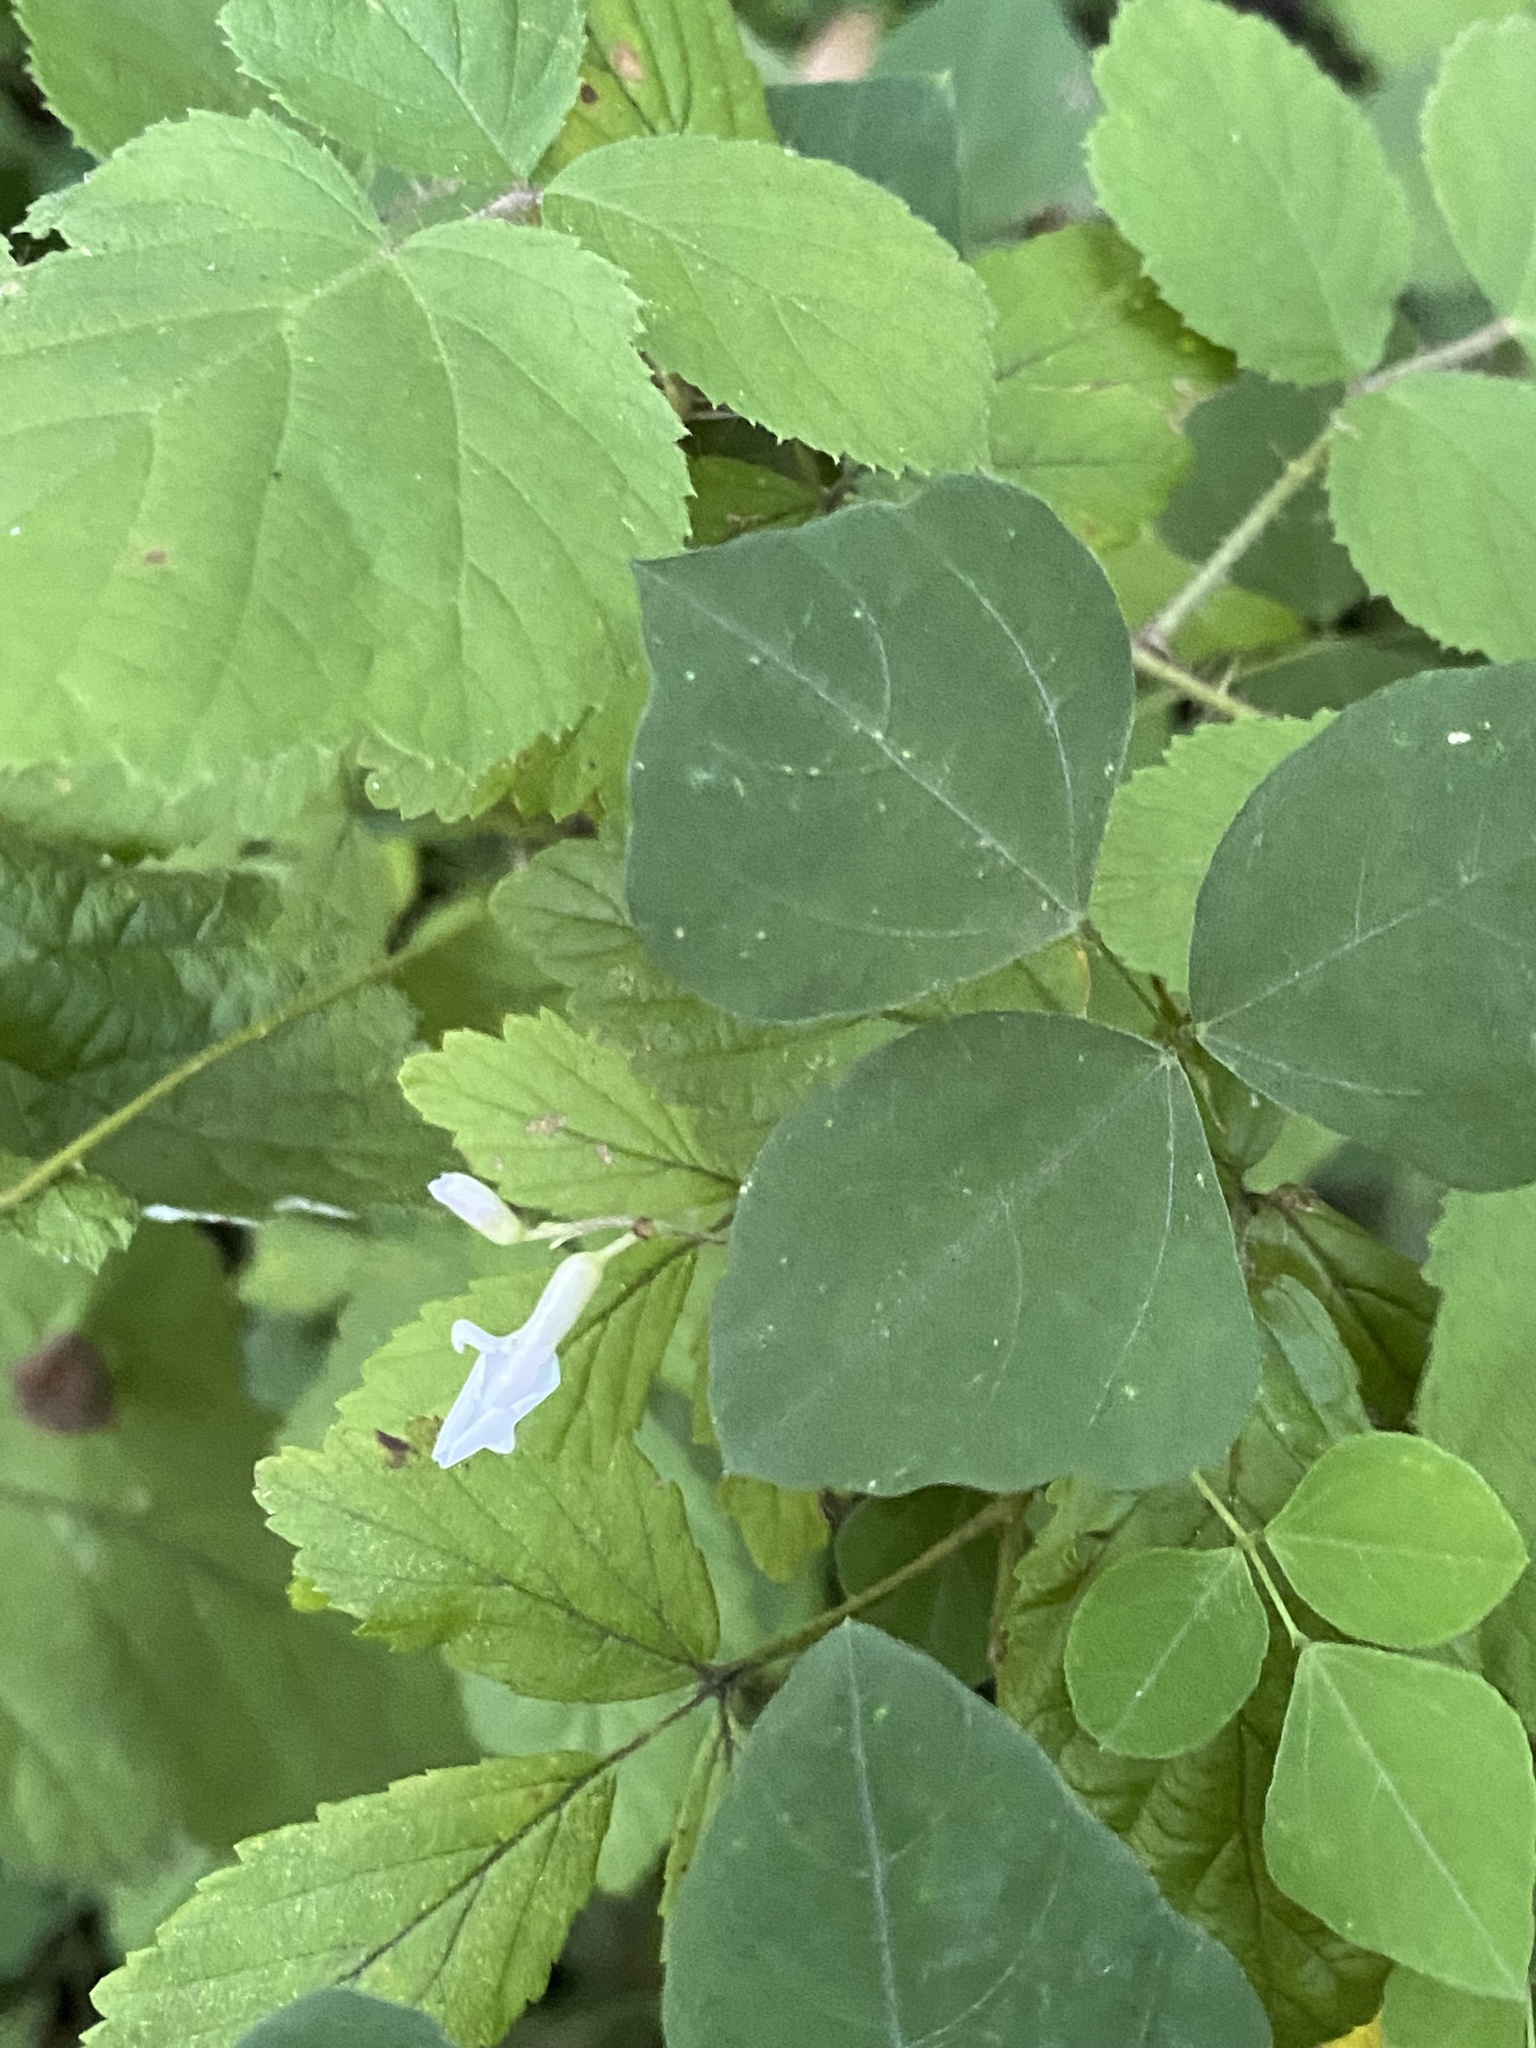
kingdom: Plantae
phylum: Tracheophyta
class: Magnoliopsida
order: Fabales
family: Fabaceae
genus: Amphicarpaea
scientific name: Amphicarpaea bracteata
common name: American hog peanut
